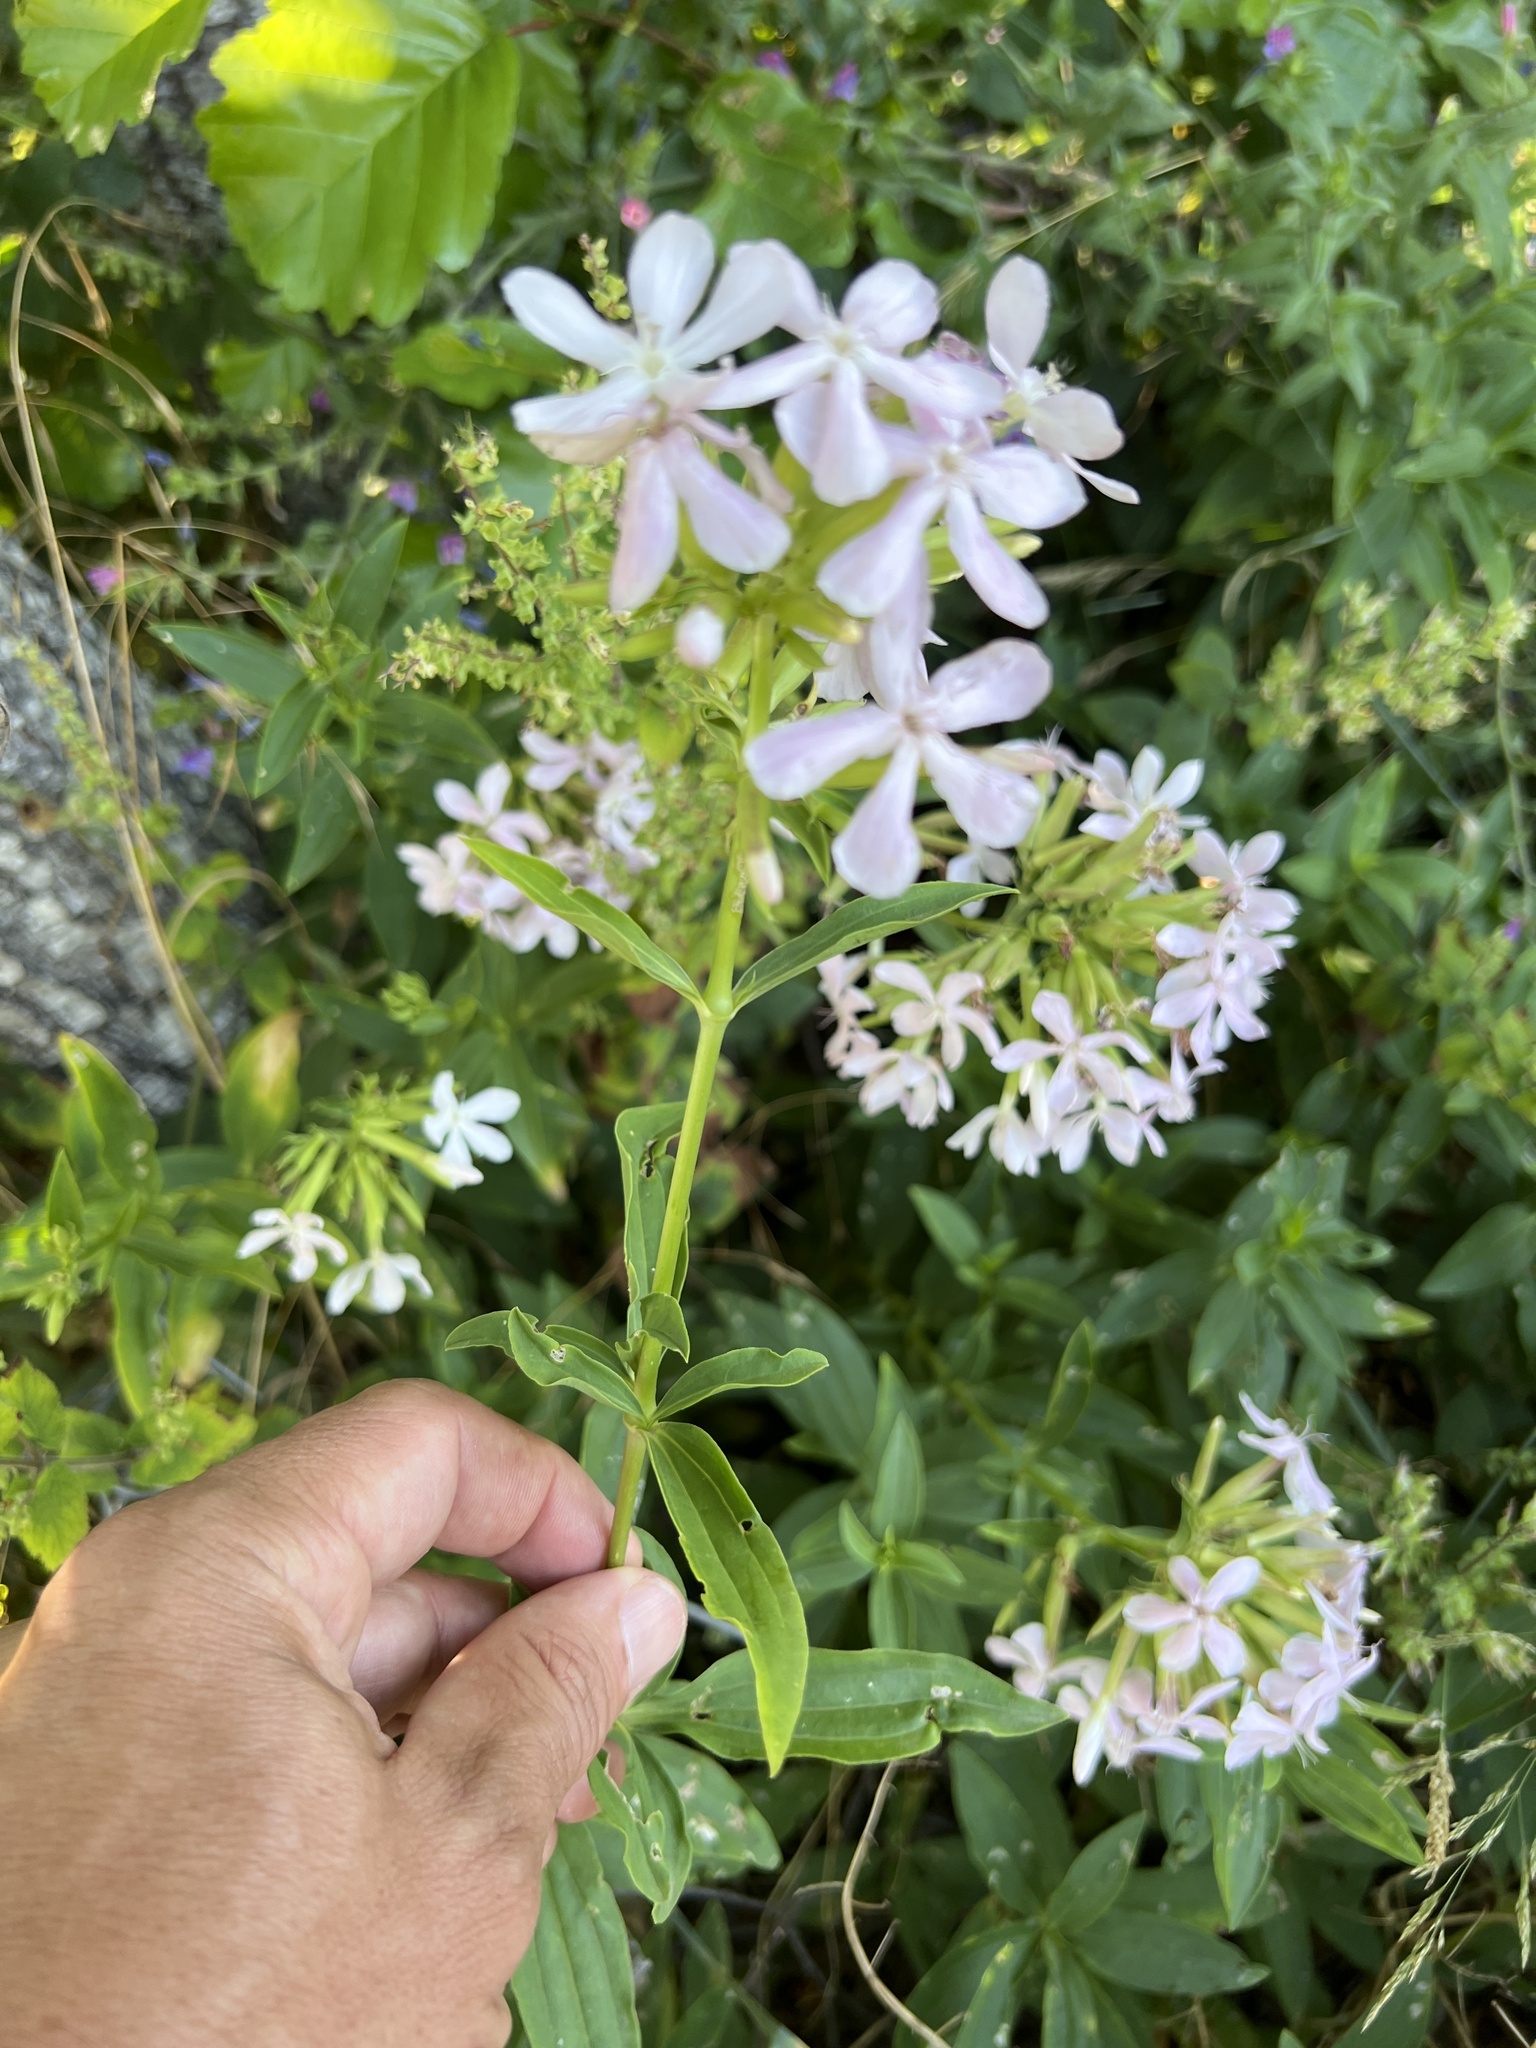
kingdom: Plantae
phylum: Tracheophyta
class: Magnoliopsida
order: Caryophyllales
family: Caryophyllaceae
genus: Saponaria
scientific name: Saponaria officinalis
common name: Soapwort
